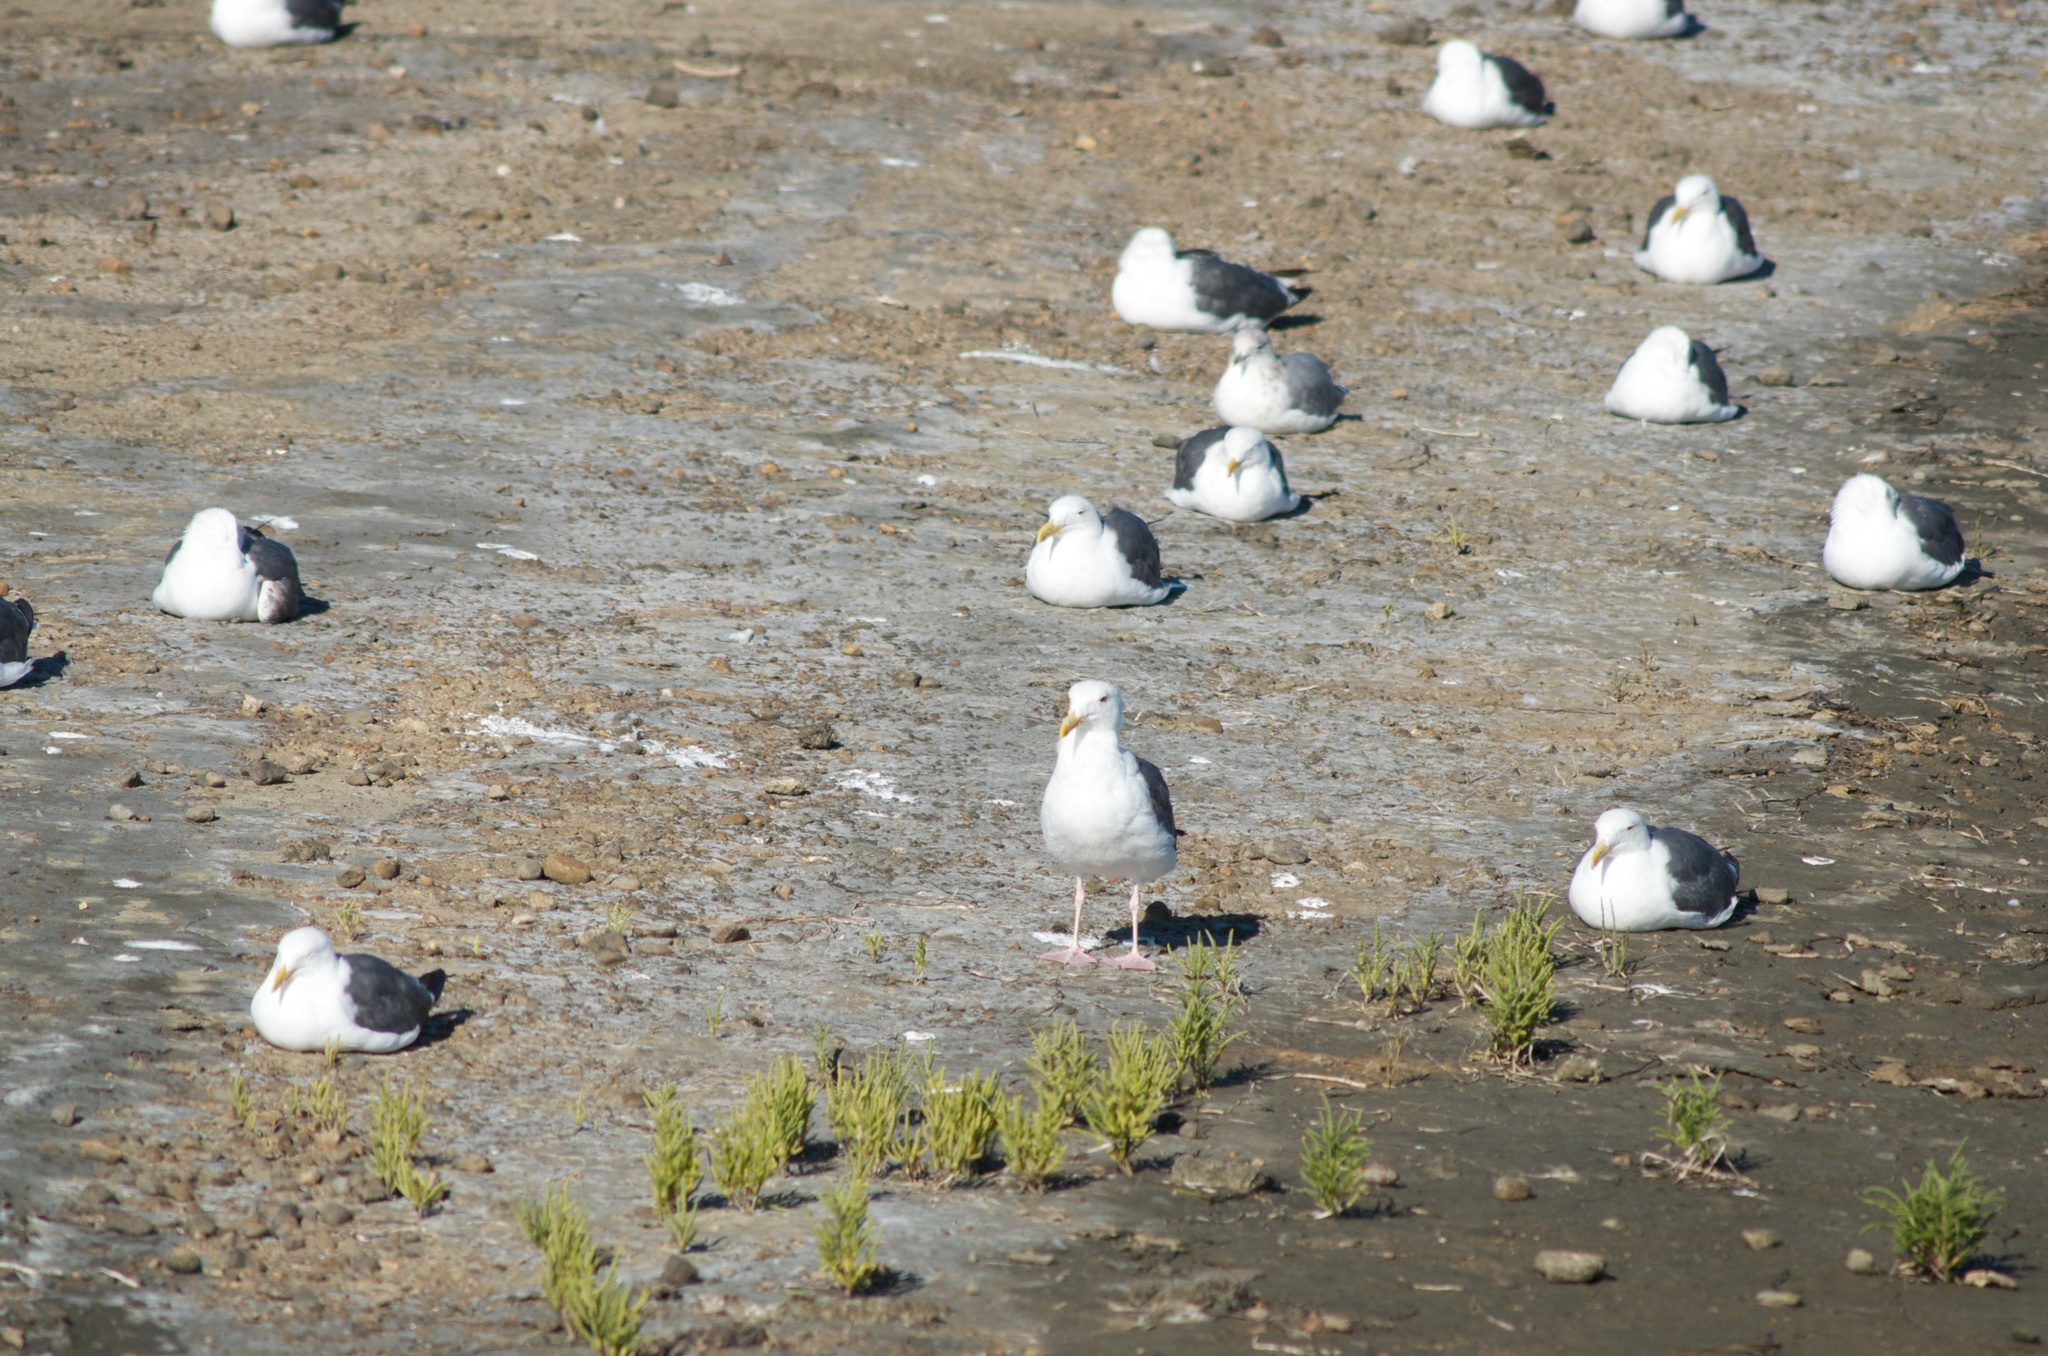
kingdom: Animalia
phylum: Chordata
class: Aves
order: Charadriiformes
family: Laridae
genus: Larus
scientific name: Larus occidentalis
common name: Western gull
